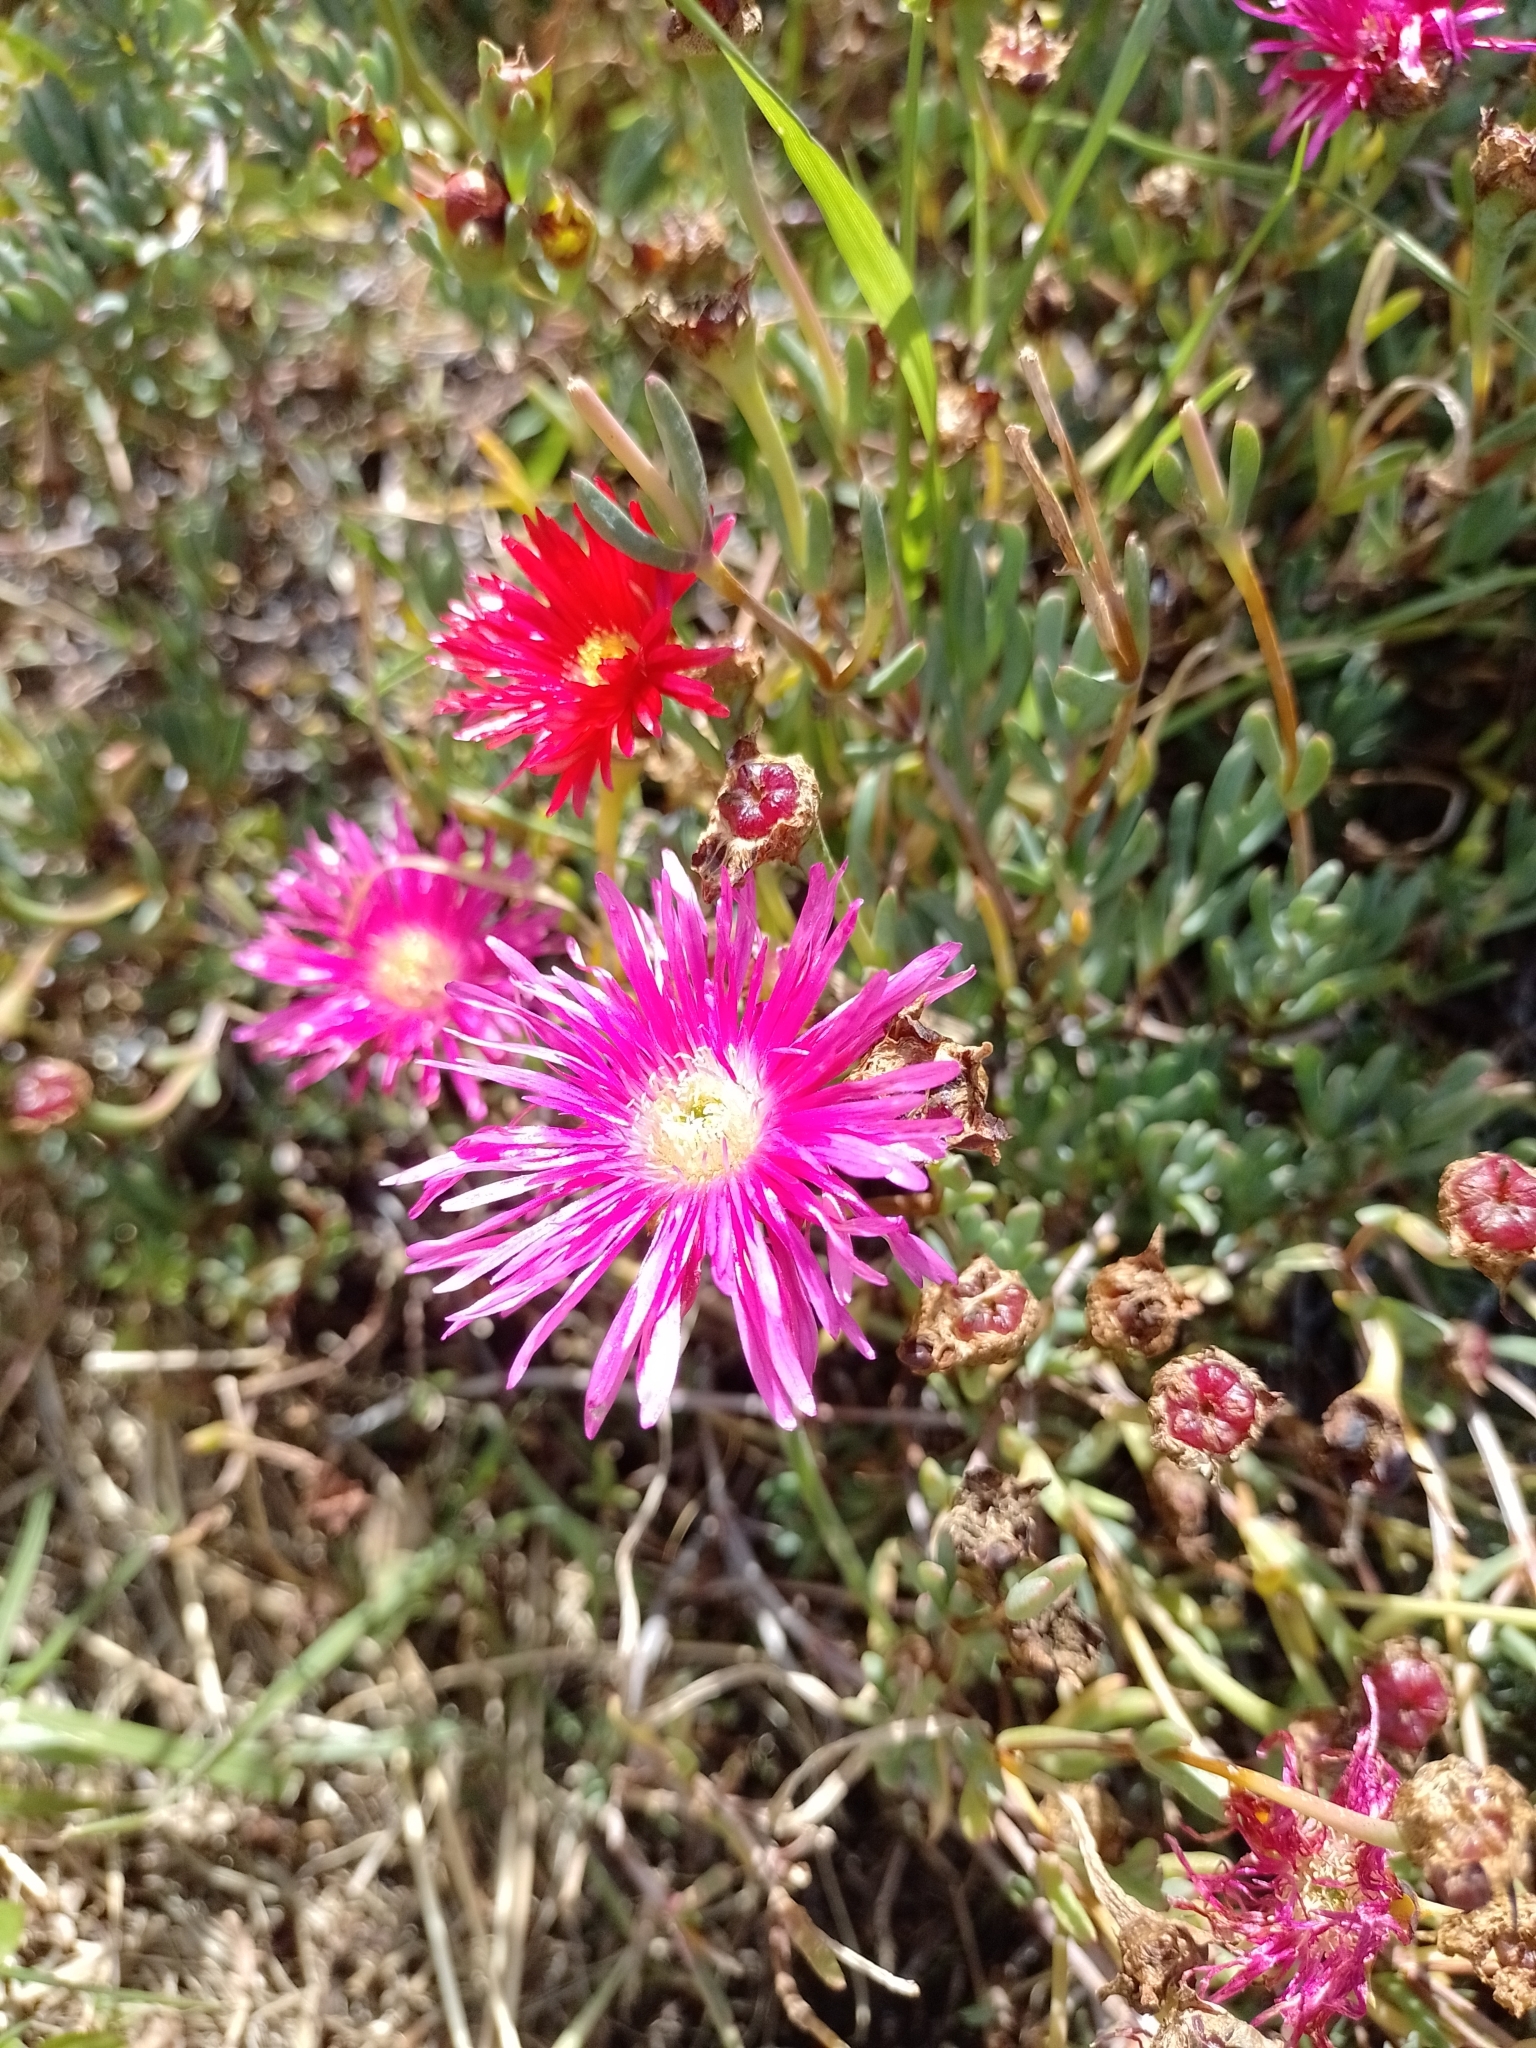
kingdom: Plantae
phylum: Tracheophyta
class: Magnoliopsida
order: Caryophyllales
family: Aizoaceae
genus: Lampranthus
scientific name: Lampranthus spectabilis
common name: Trailing iceplant
